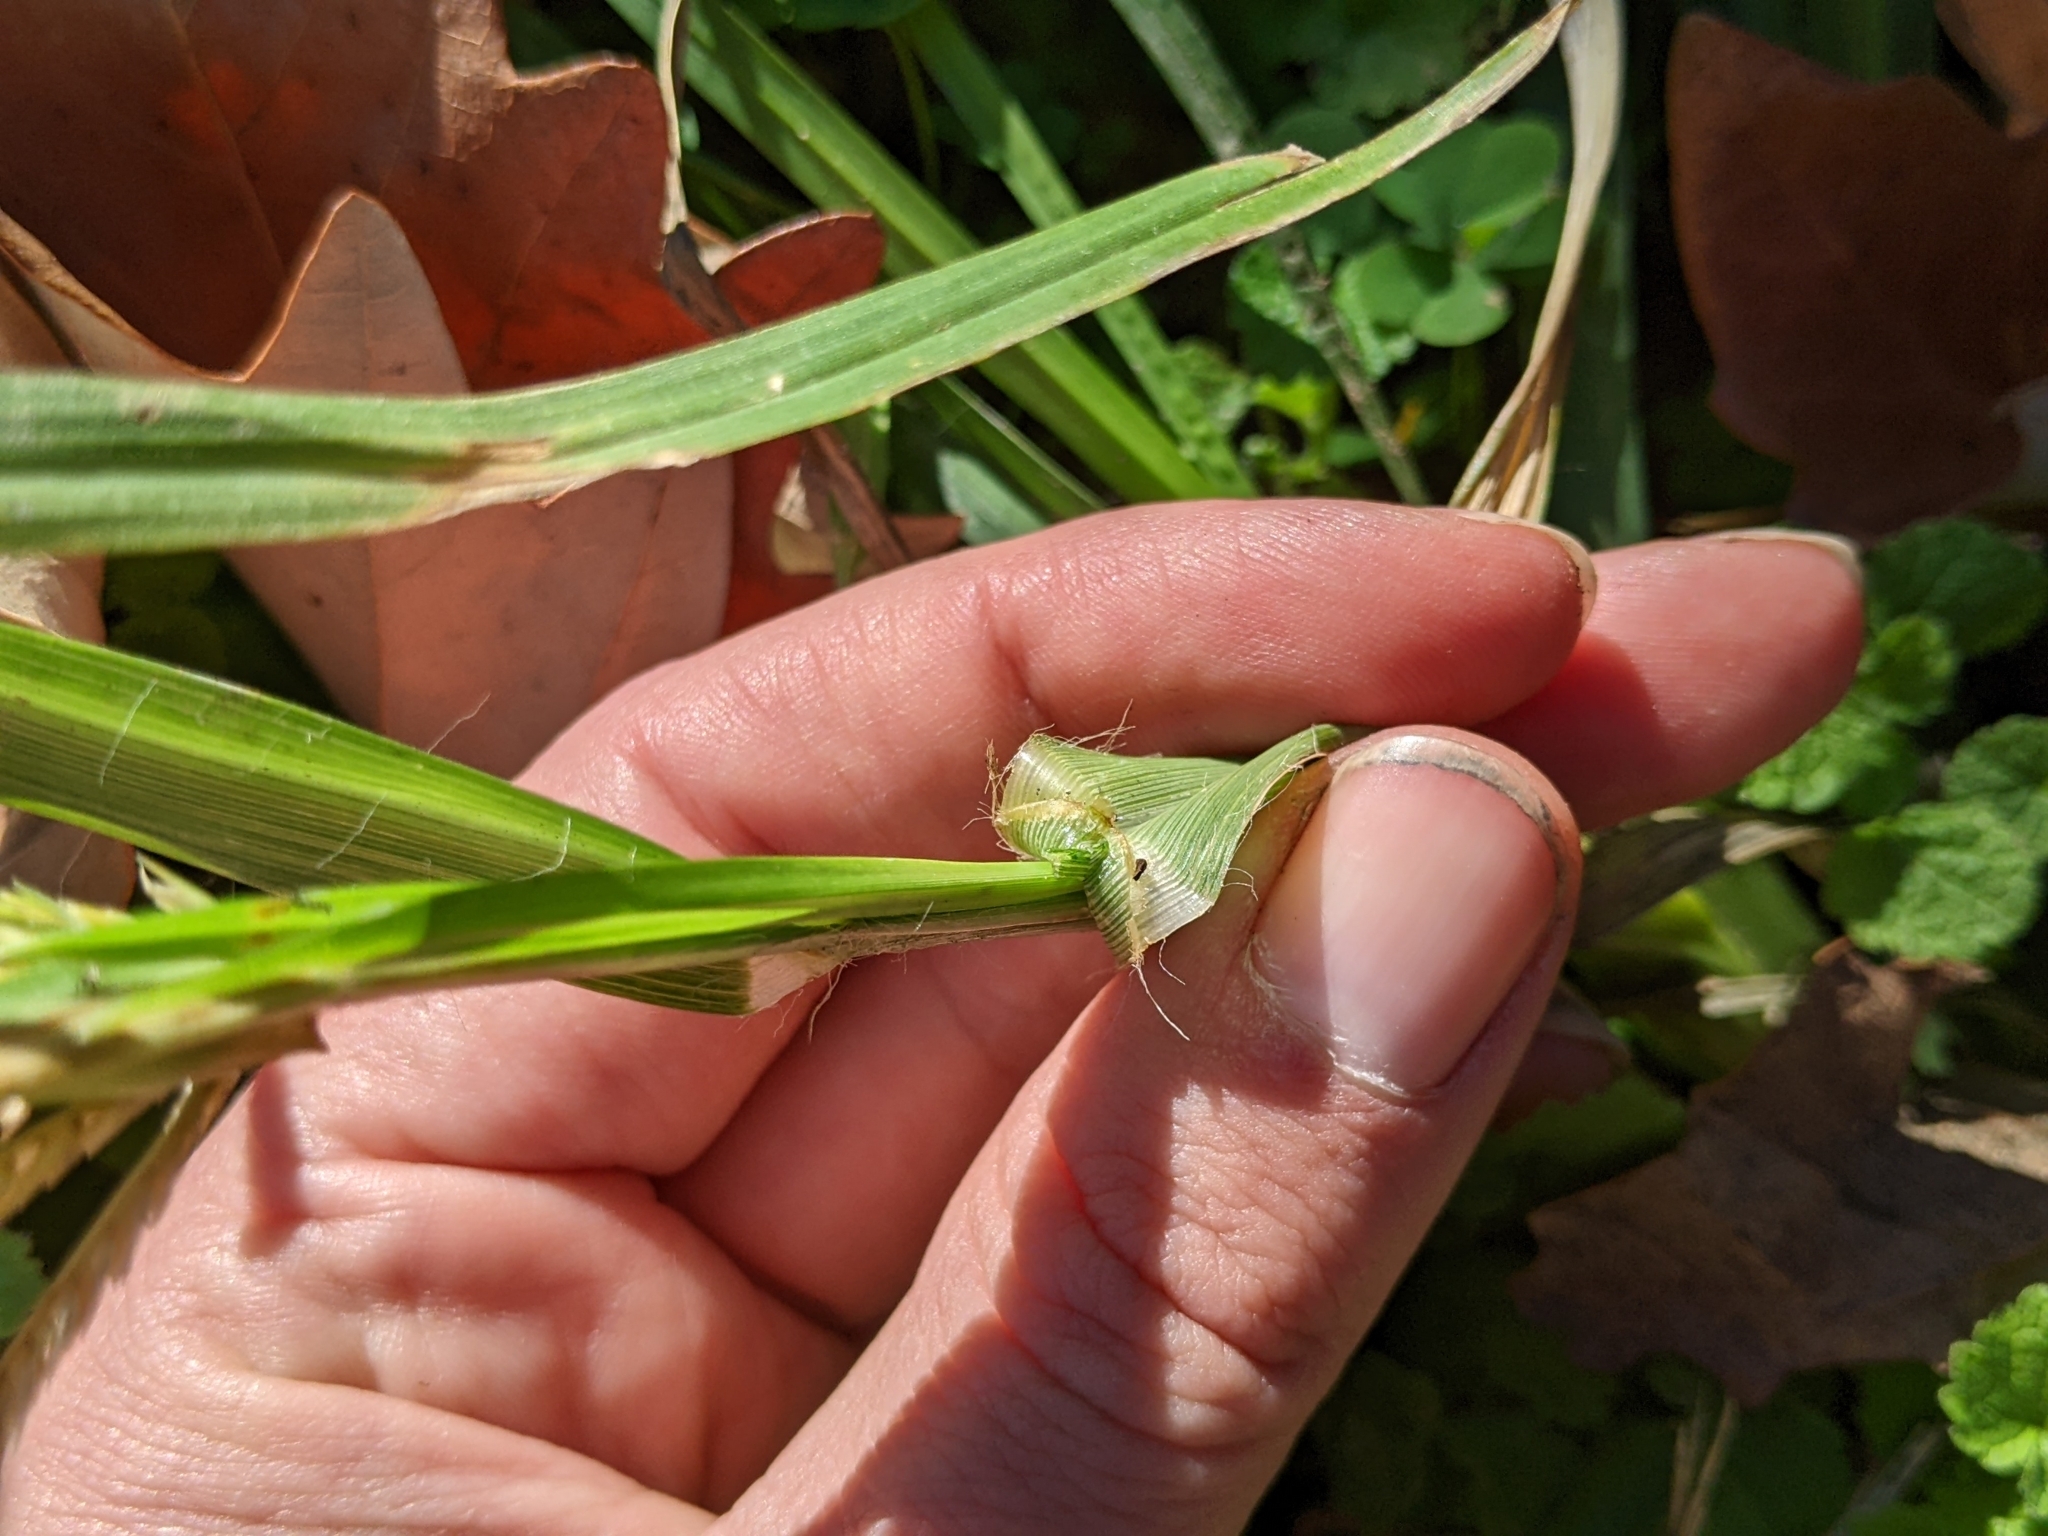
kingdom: Plantae
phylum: Tracheophyta
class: Liliopsida
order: Poales
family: Poaceae
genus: Eleusine
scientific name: Eleusine indica
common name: Yard-grass
